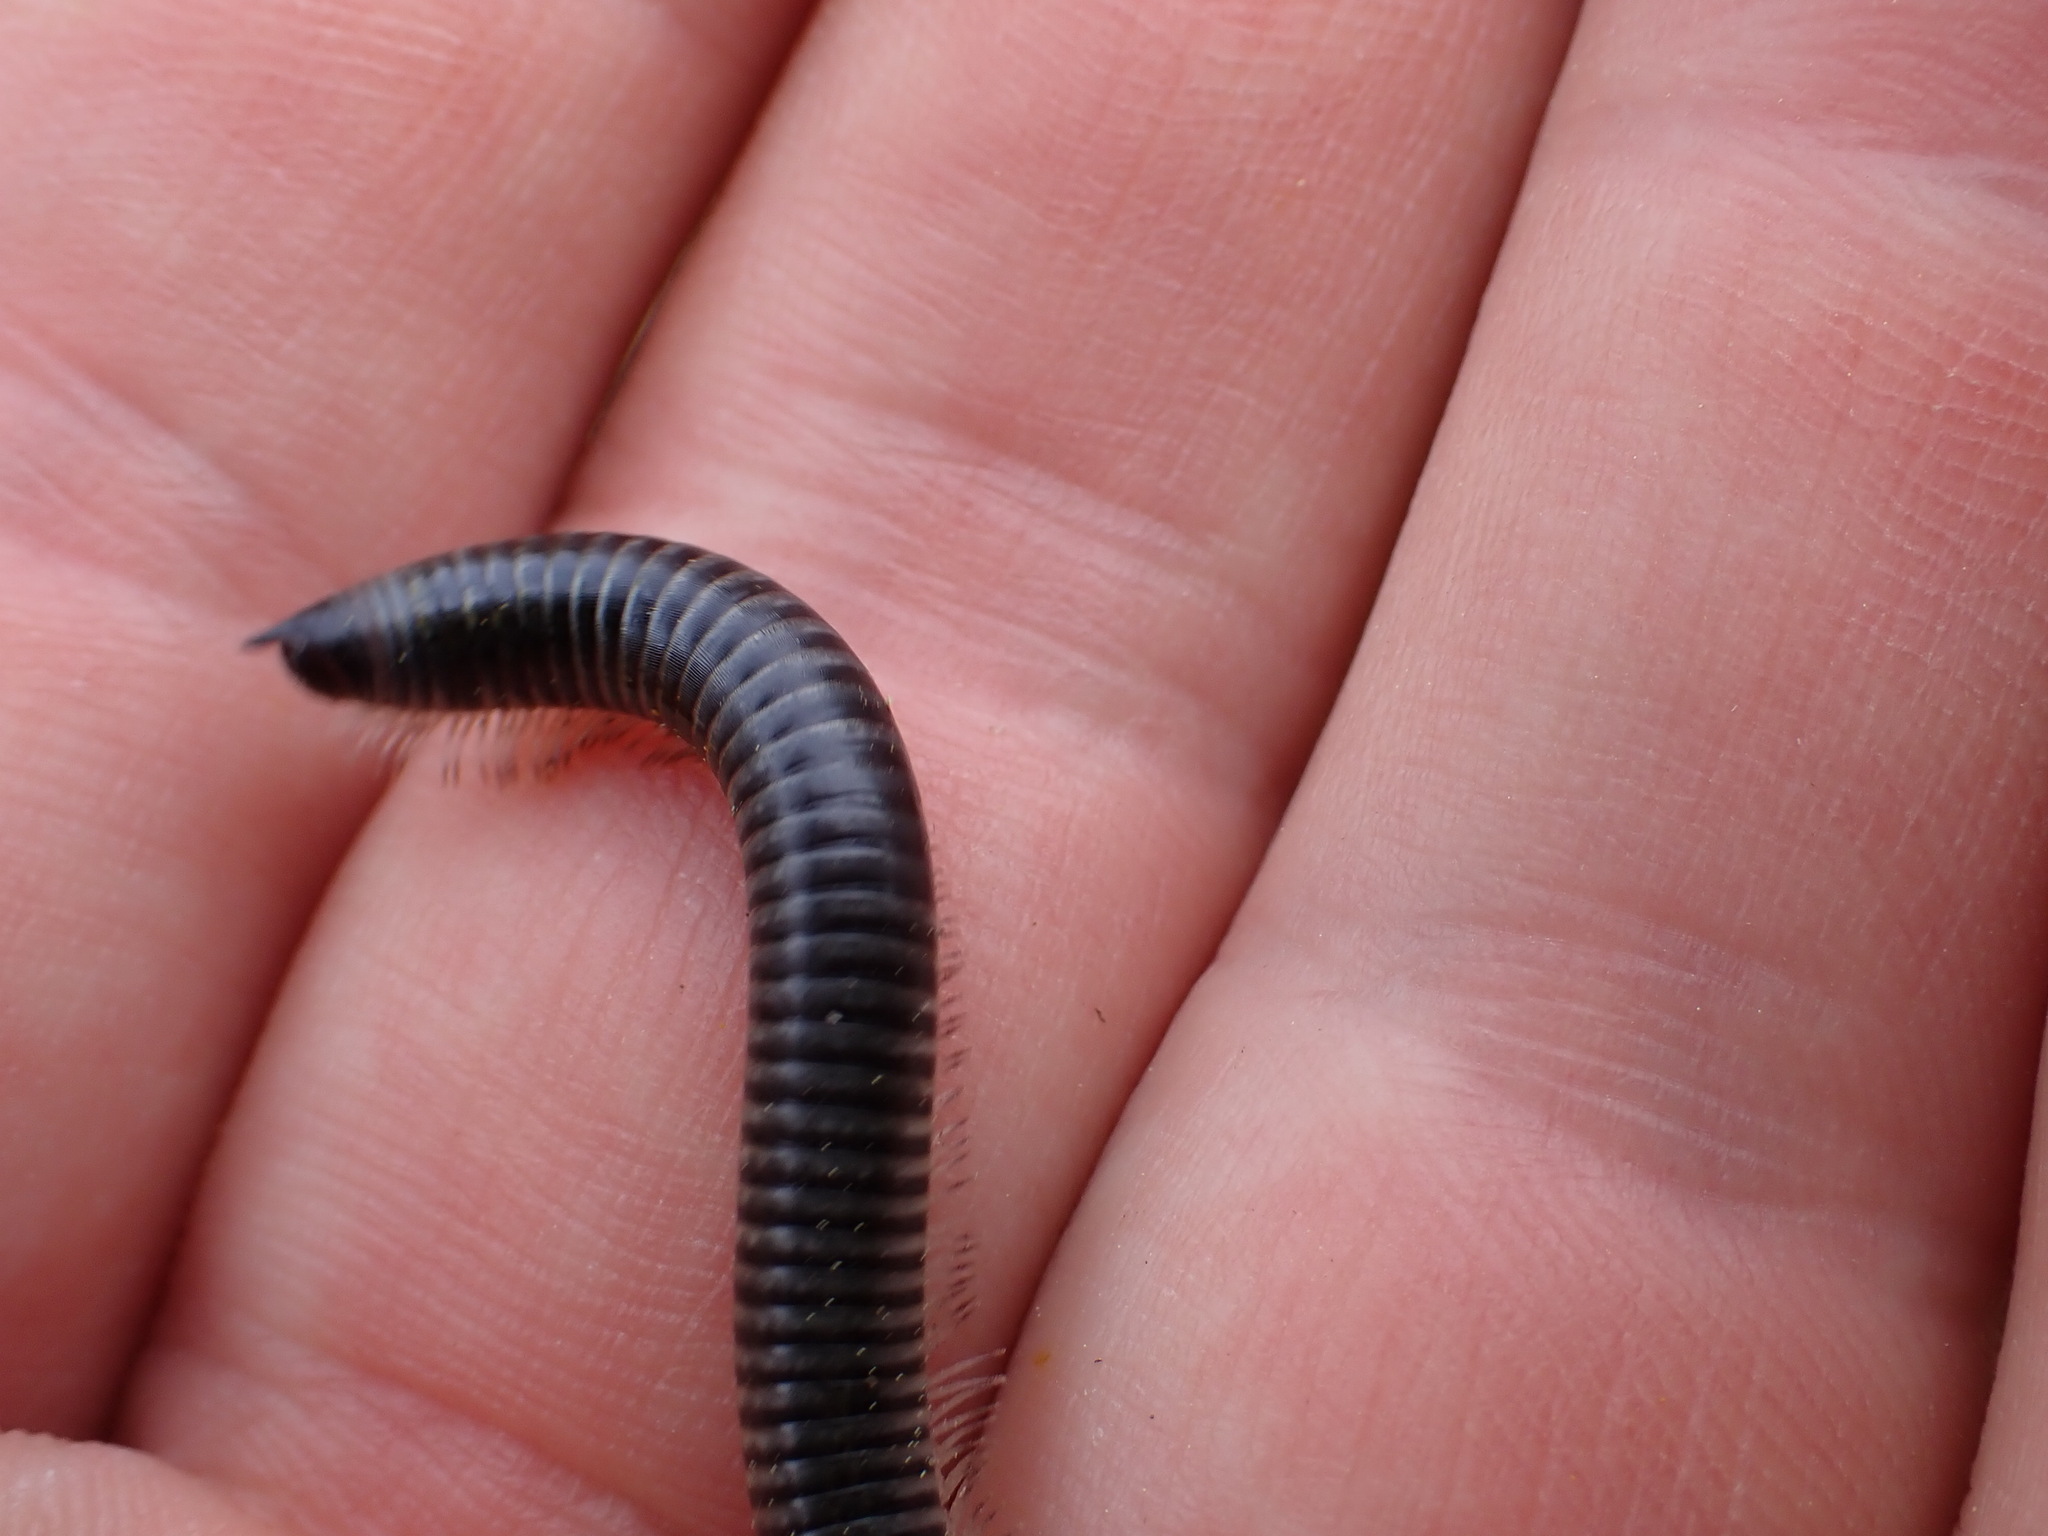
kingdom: Animalia
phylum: Arthropoda
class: Diplopoda
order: Julida
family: Julidae
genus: Ommatoiulus
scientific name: Ommatoiulus sabulosus
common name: Striped millipede
